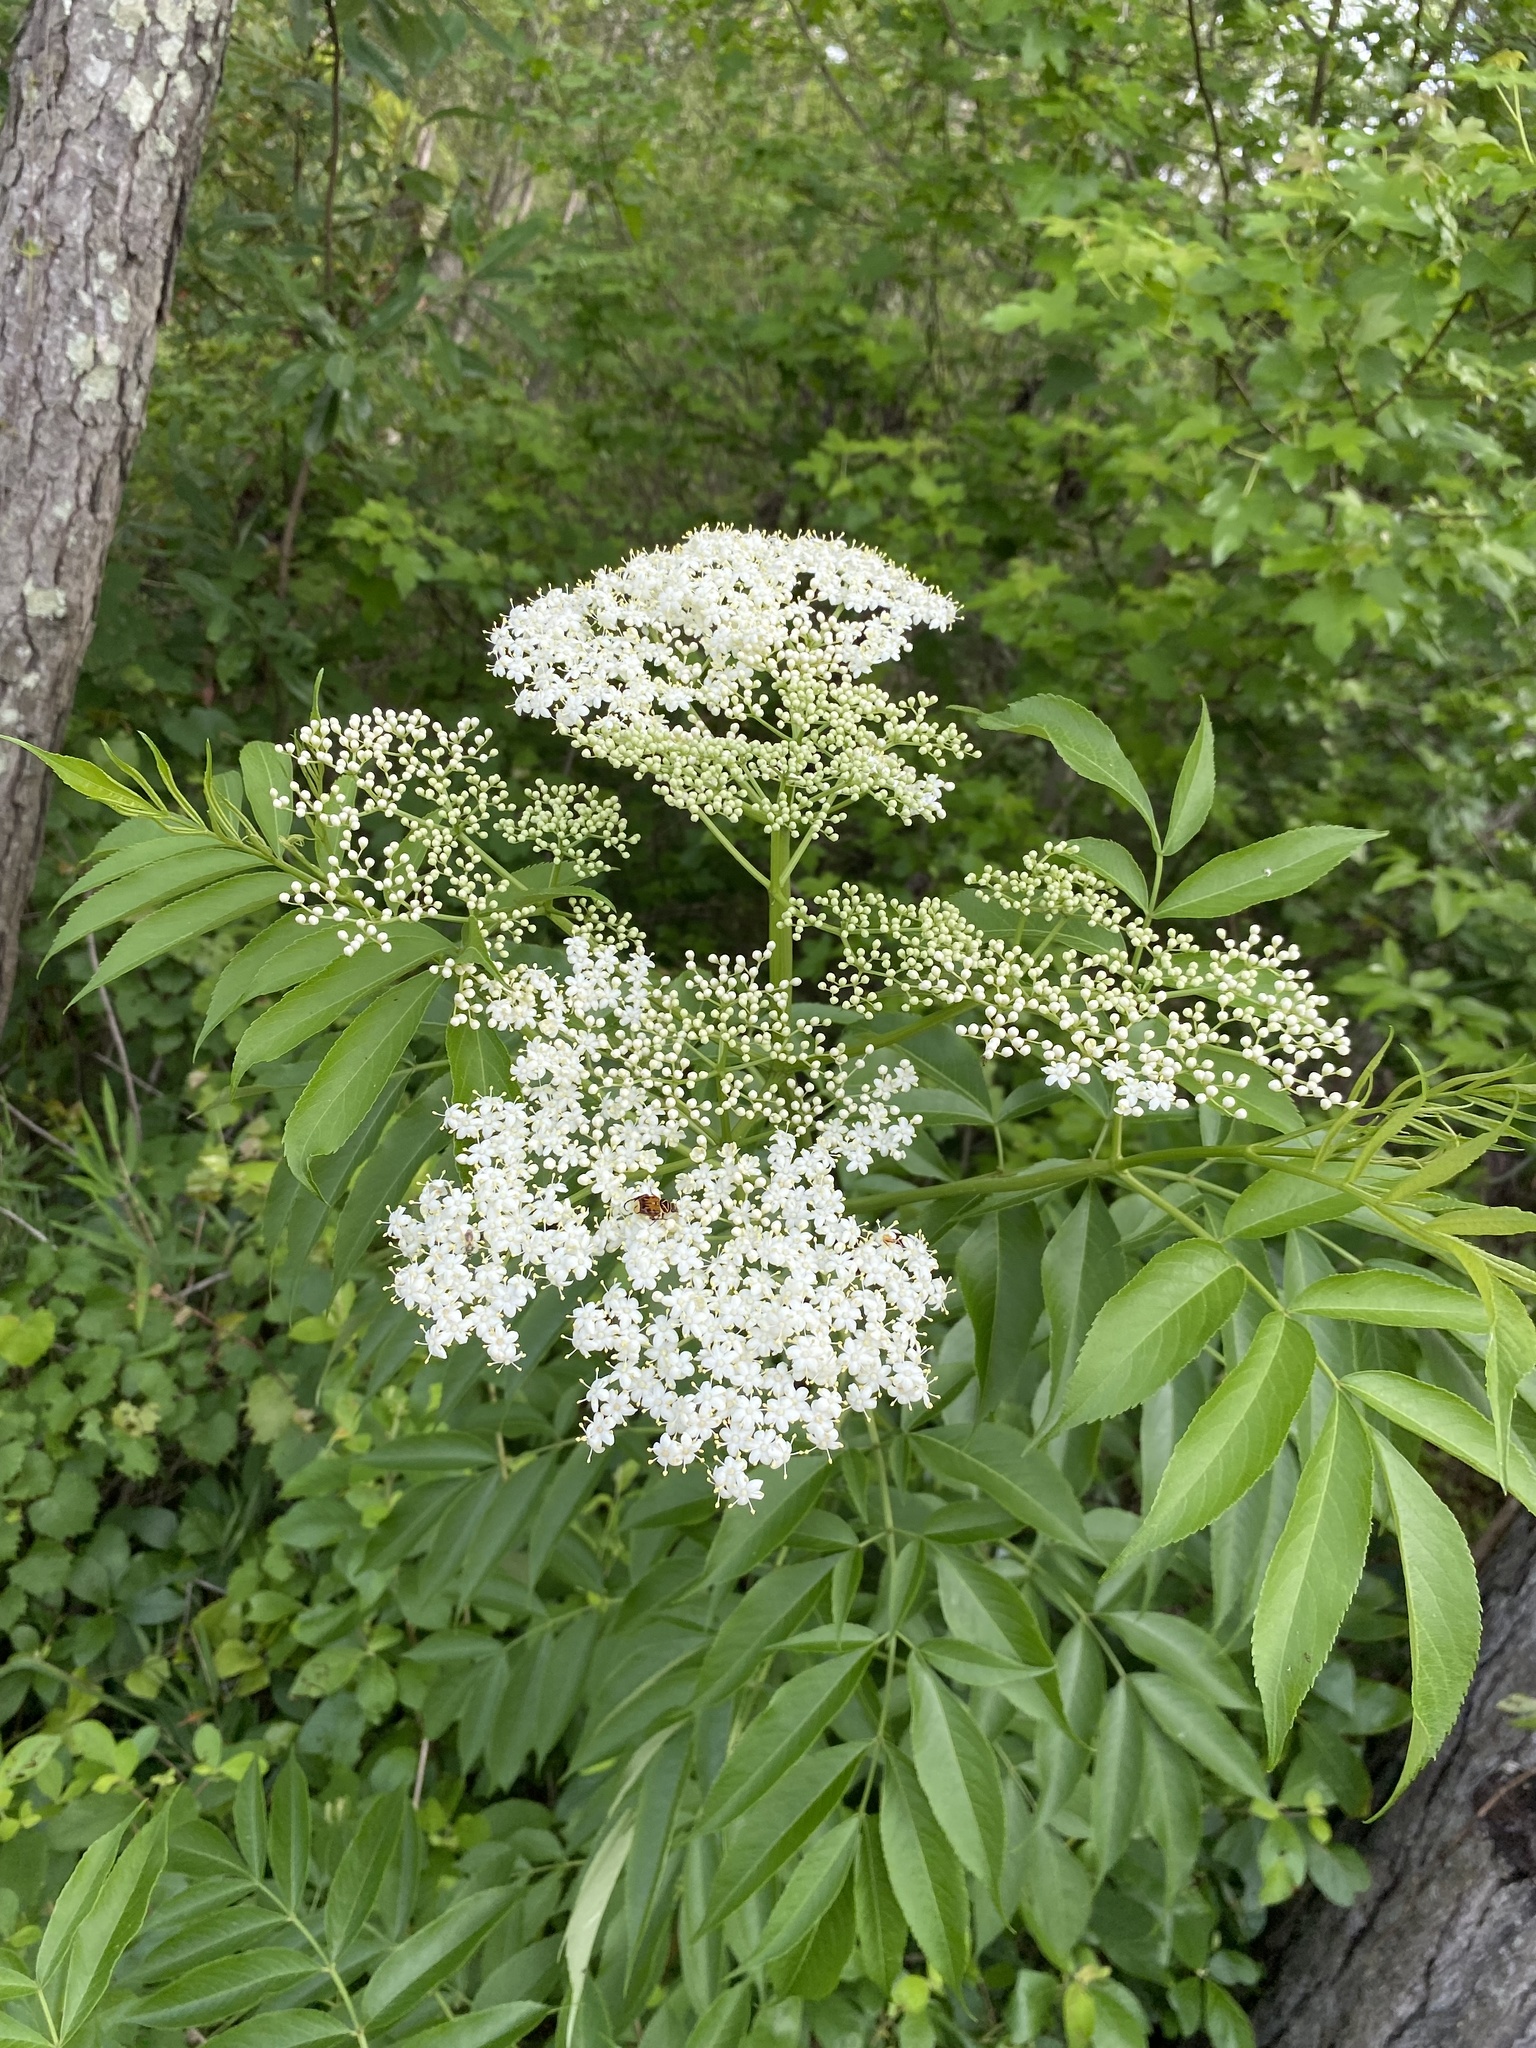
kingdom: Plantae
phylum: Tracheophyta
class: Magnoliopsida
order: Dipsacales
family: Viburnaceae
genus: Sambucus
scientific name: Sambucus canadensis
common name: American elder
